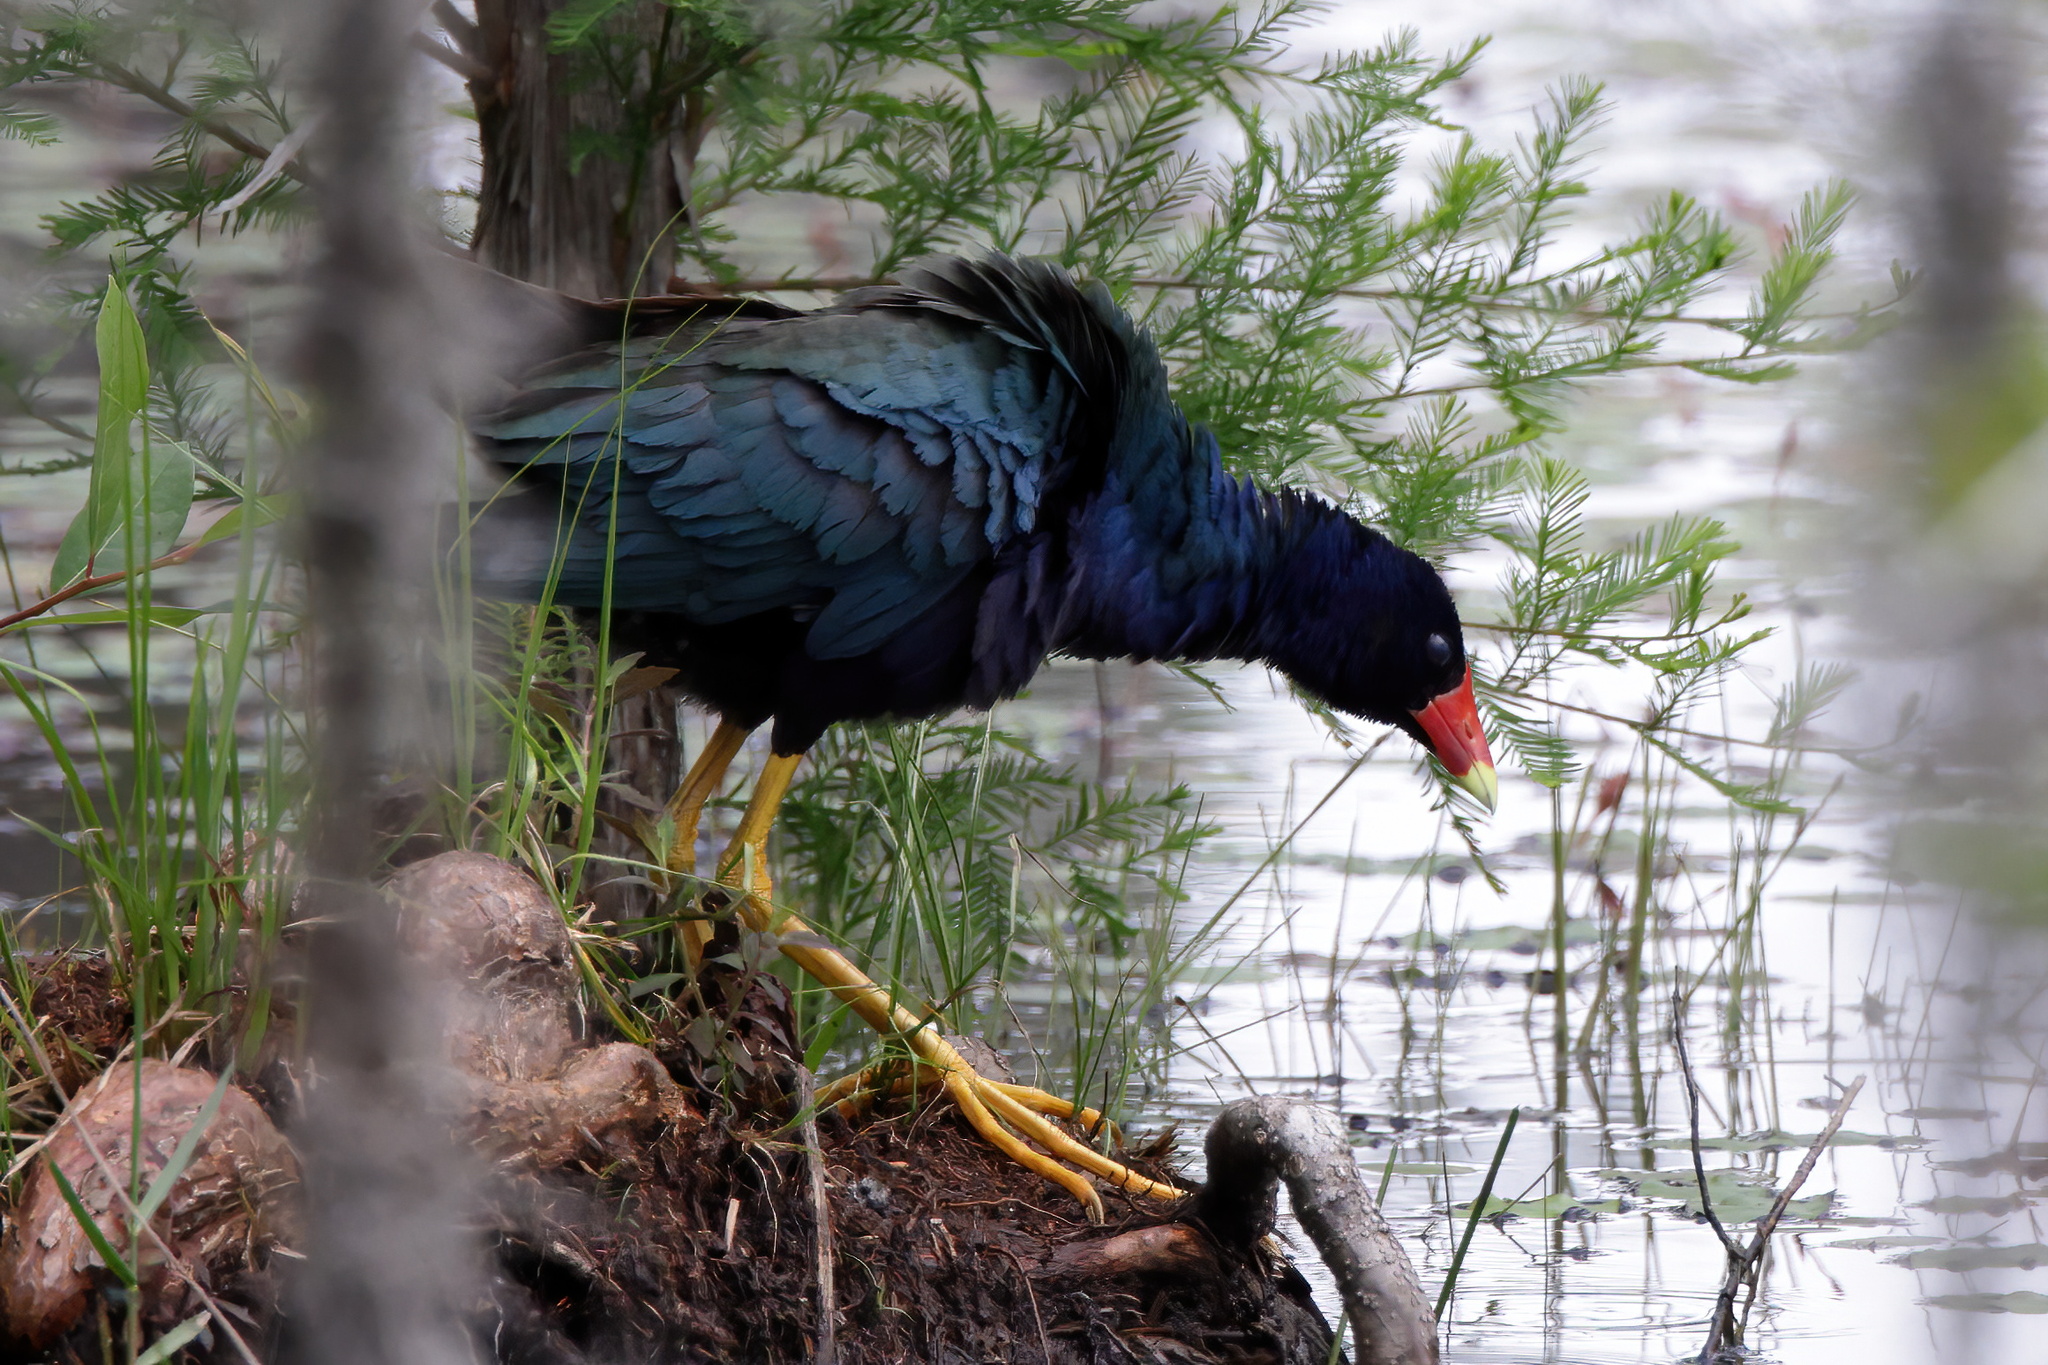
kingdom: Animalia
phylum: Chordata
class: Aves
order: Gruiformes
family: Rallidae
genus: Porphyrio
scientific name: Porphyrio martinica
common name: Purple gallinule
